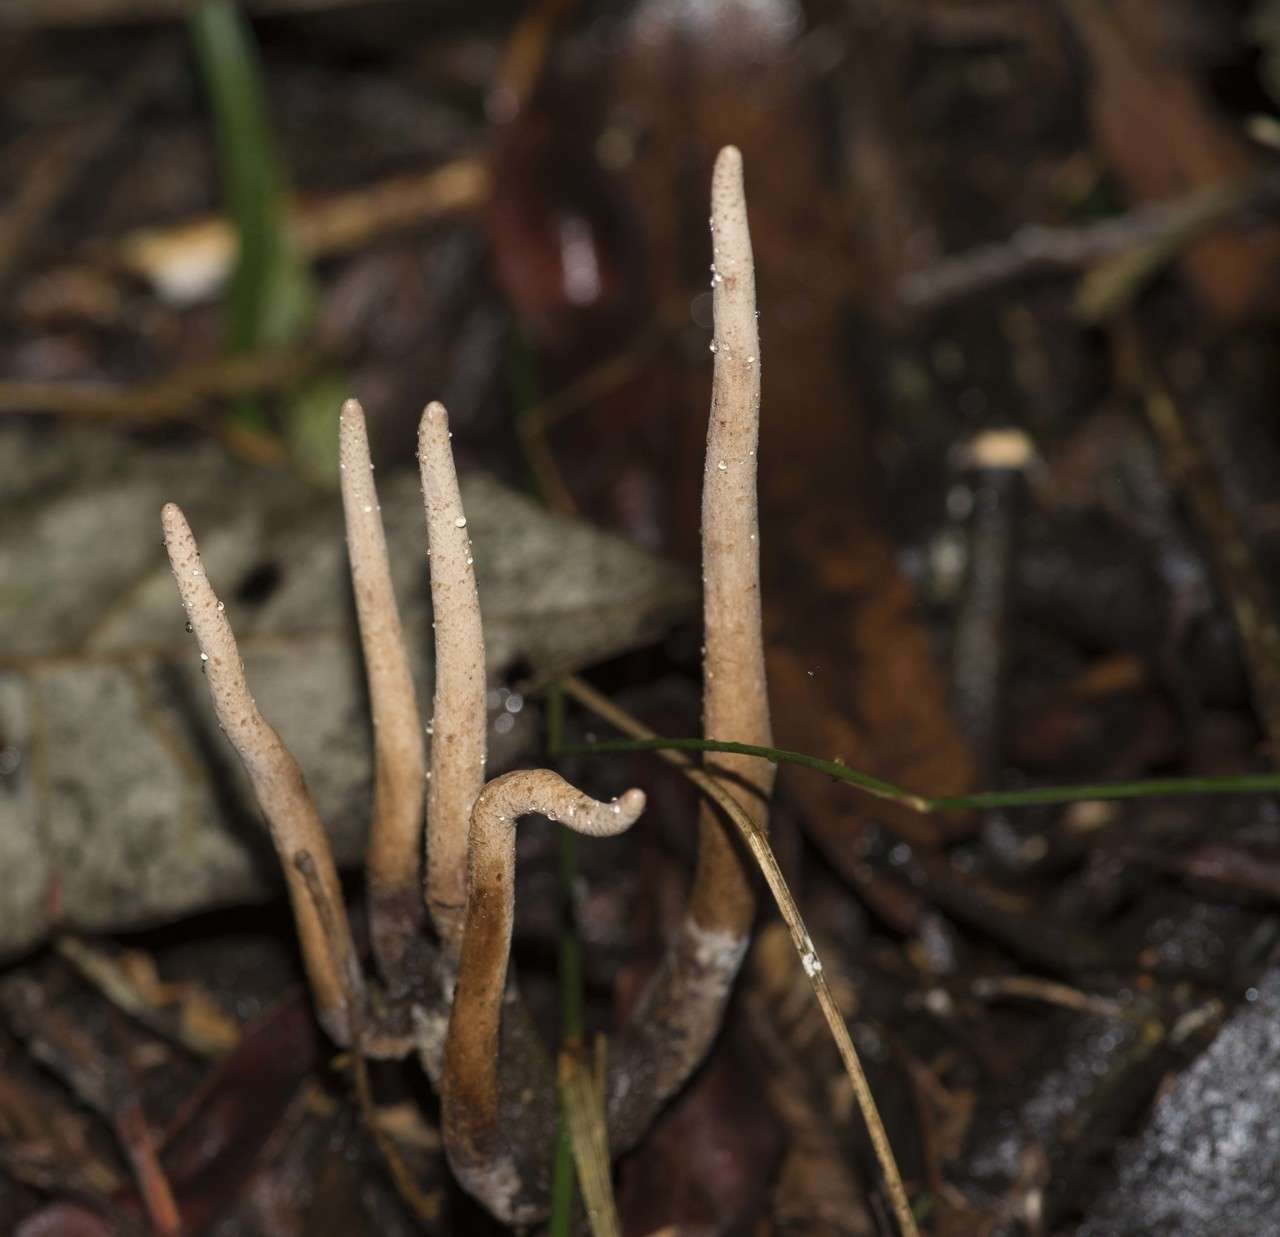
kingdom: Fungi
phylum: Ascomycota
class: Sordariomycetes
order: Hypocreales
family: Ophiocordycipitaceae
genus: Ophiocordyceps
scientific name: Ophiocordyceps robertsii
